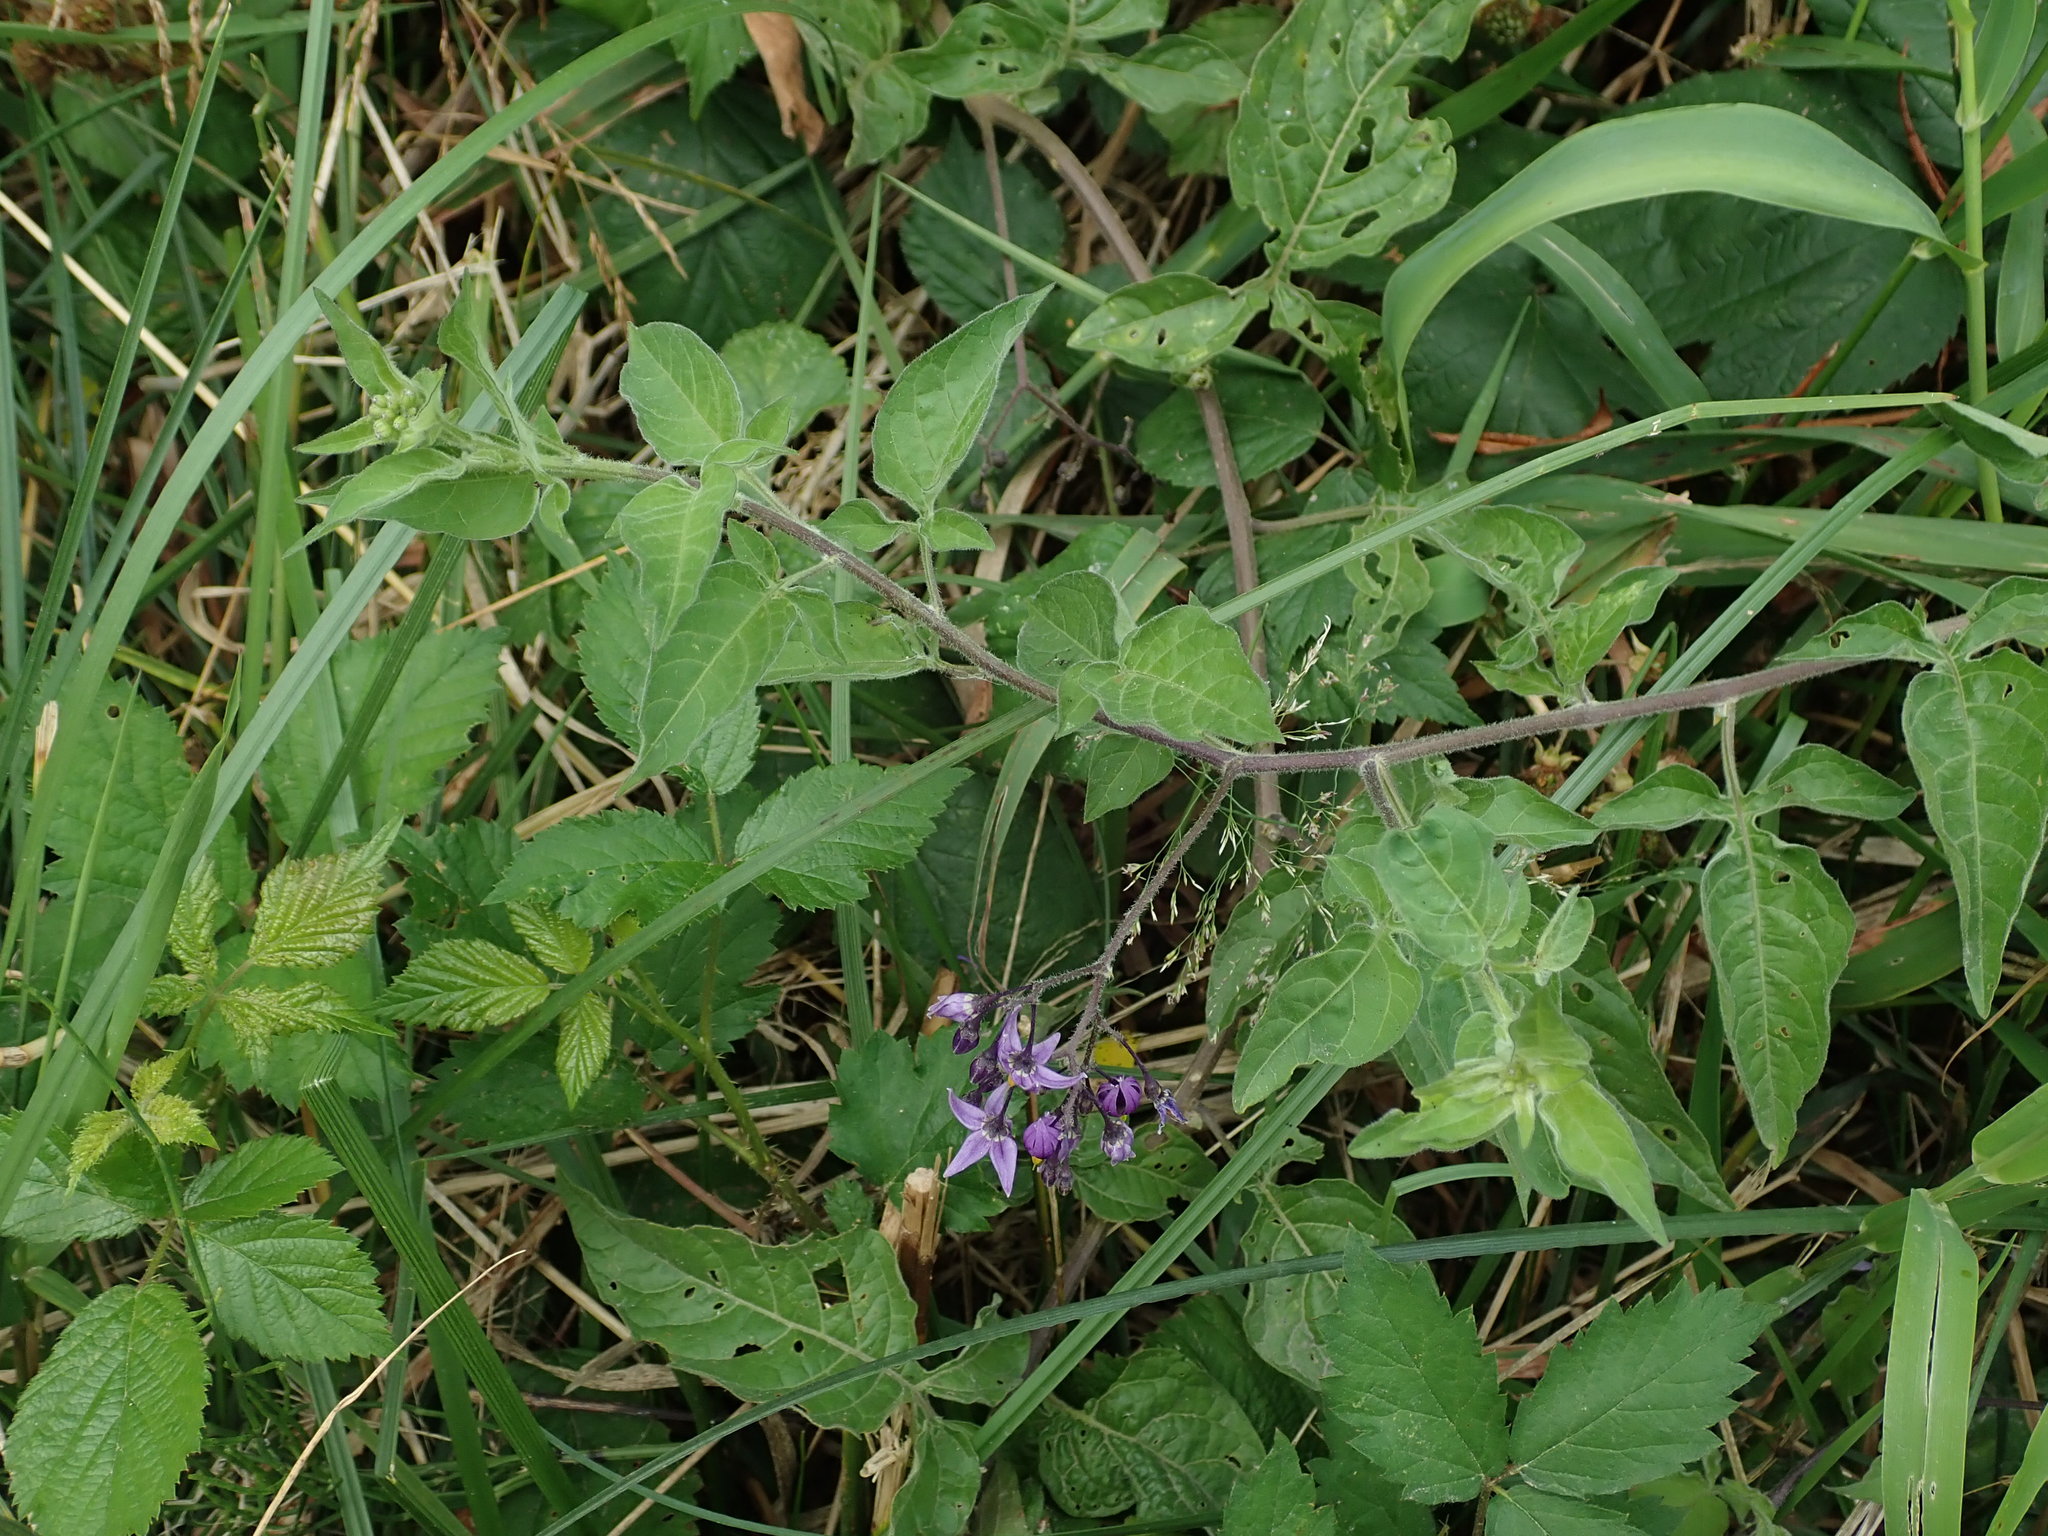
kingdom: Plantae
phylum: Tracheophyta
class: Magnoliopsida
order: Solanales
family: Solanaceae
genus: Solanum
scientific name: Solanum dulcamara
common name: Climbing nightshade
